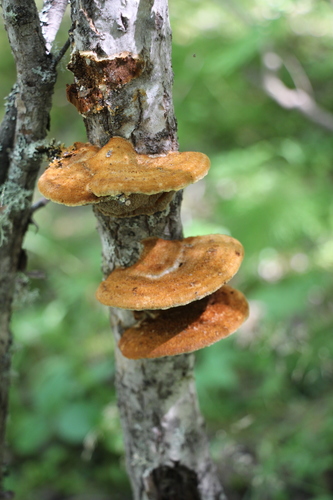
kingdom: Fungi
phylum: Basidiomycota
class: Agaricomycetes
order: Hymenochaetales
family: Hymenochaetaceae
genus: Inocutis
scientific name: Inocutis rheades
